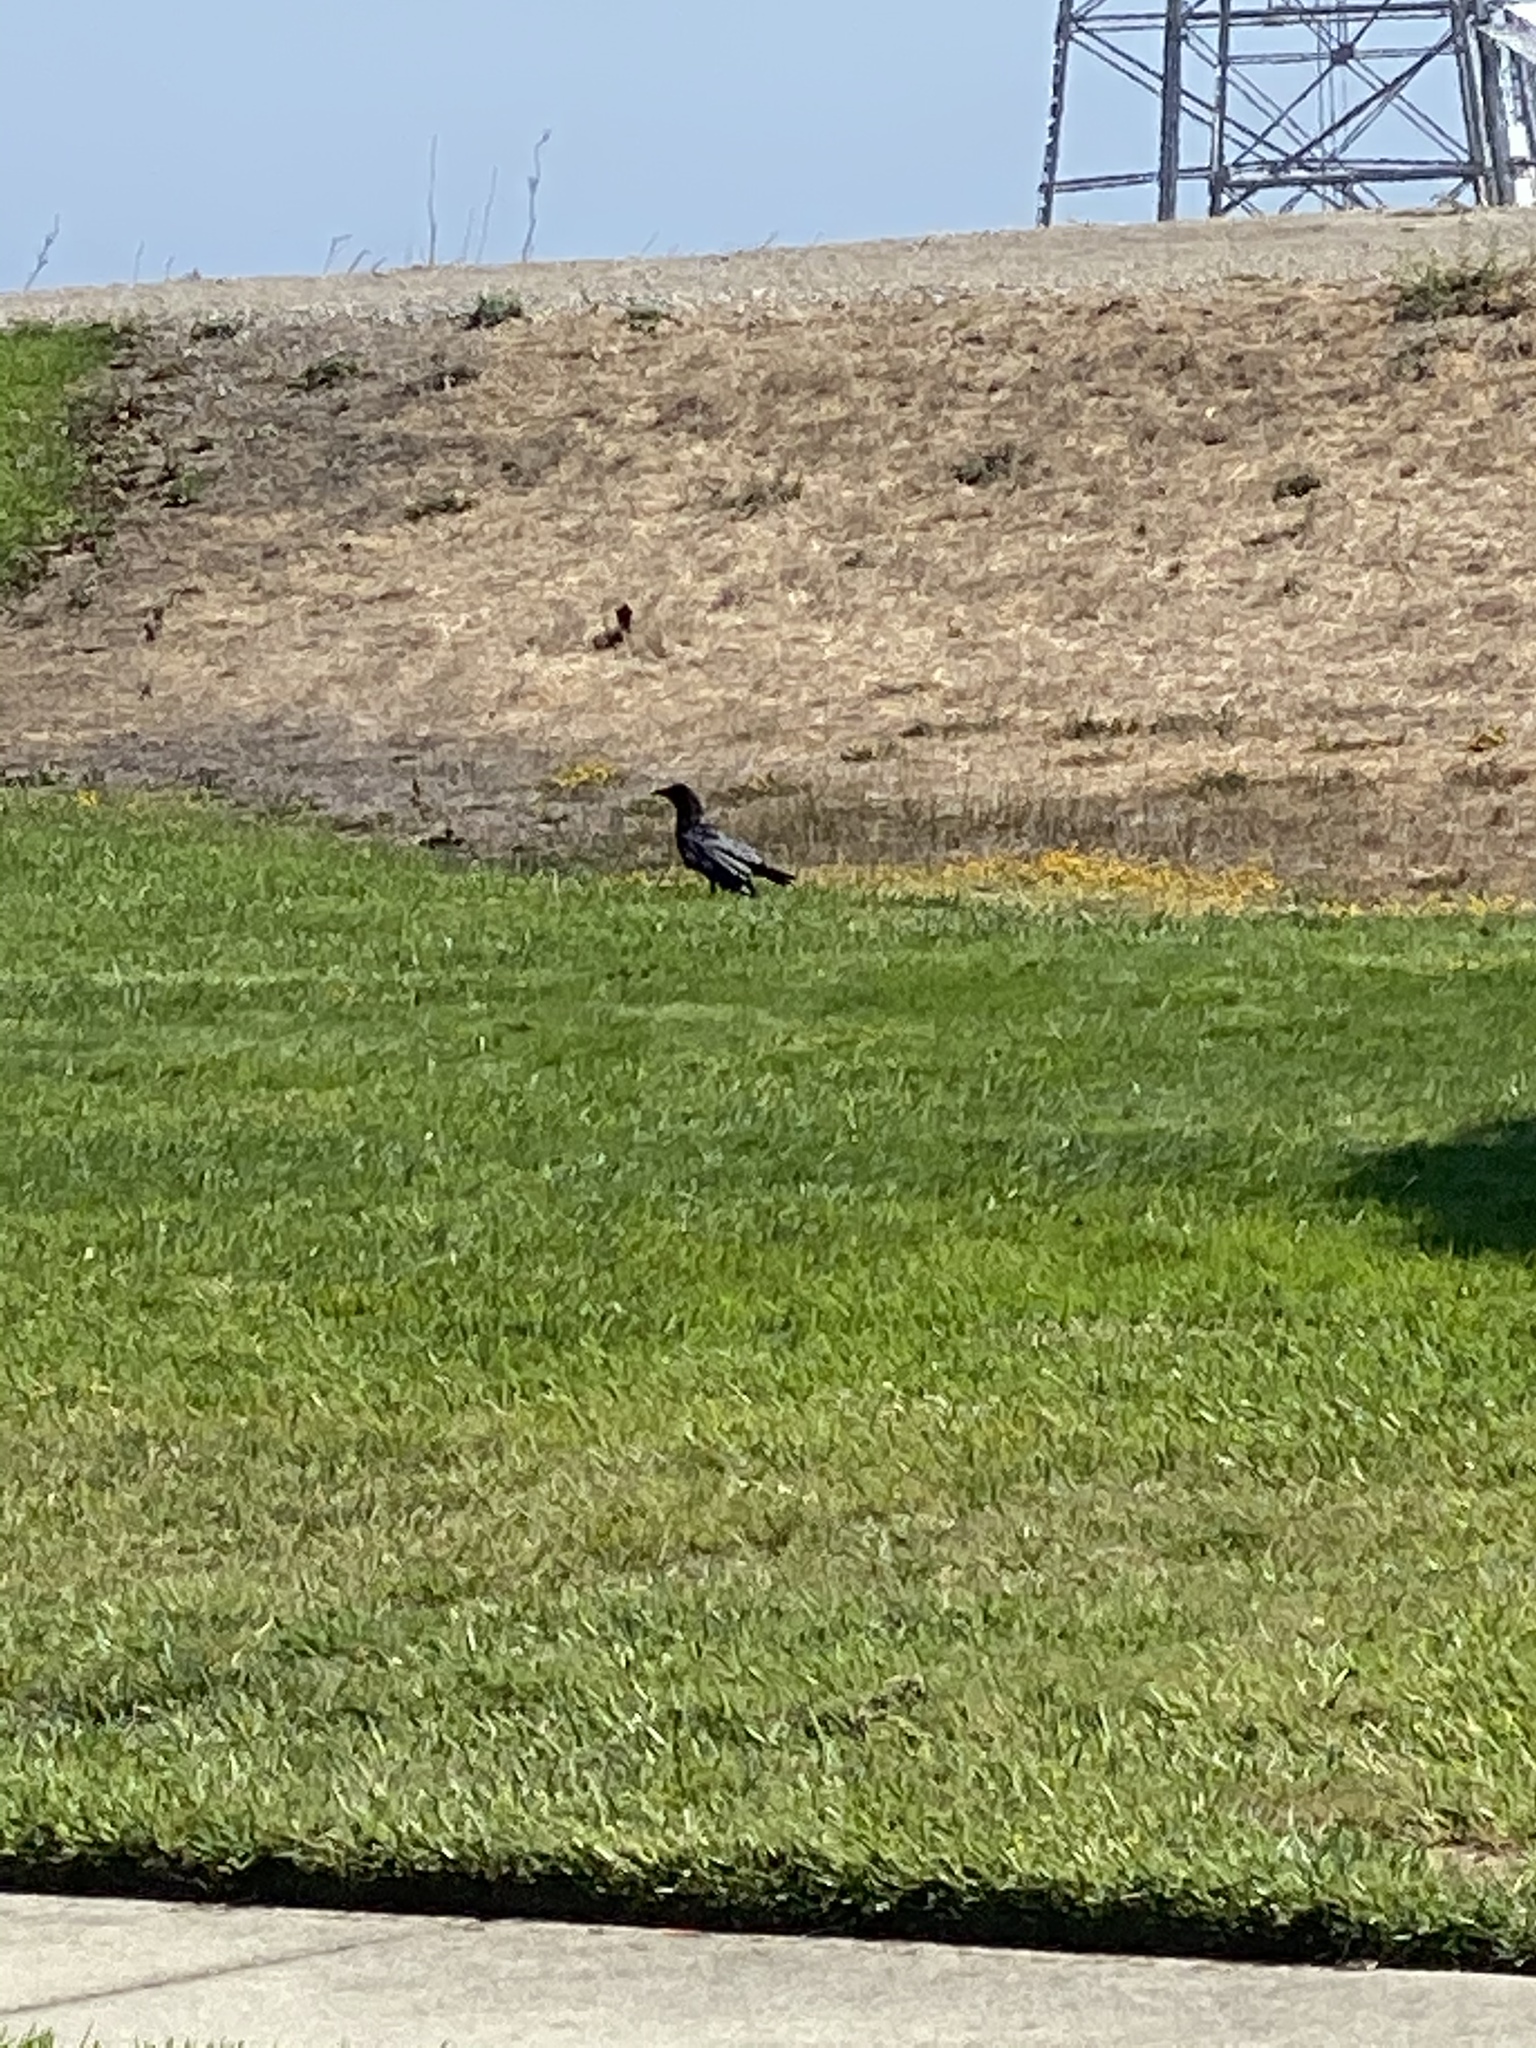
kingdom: Animalia
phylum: Chordata
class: Aves
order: Passeriformes
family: Corvidae
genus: Corvus
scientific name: Corvus brachyrhynchos
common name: American crow
